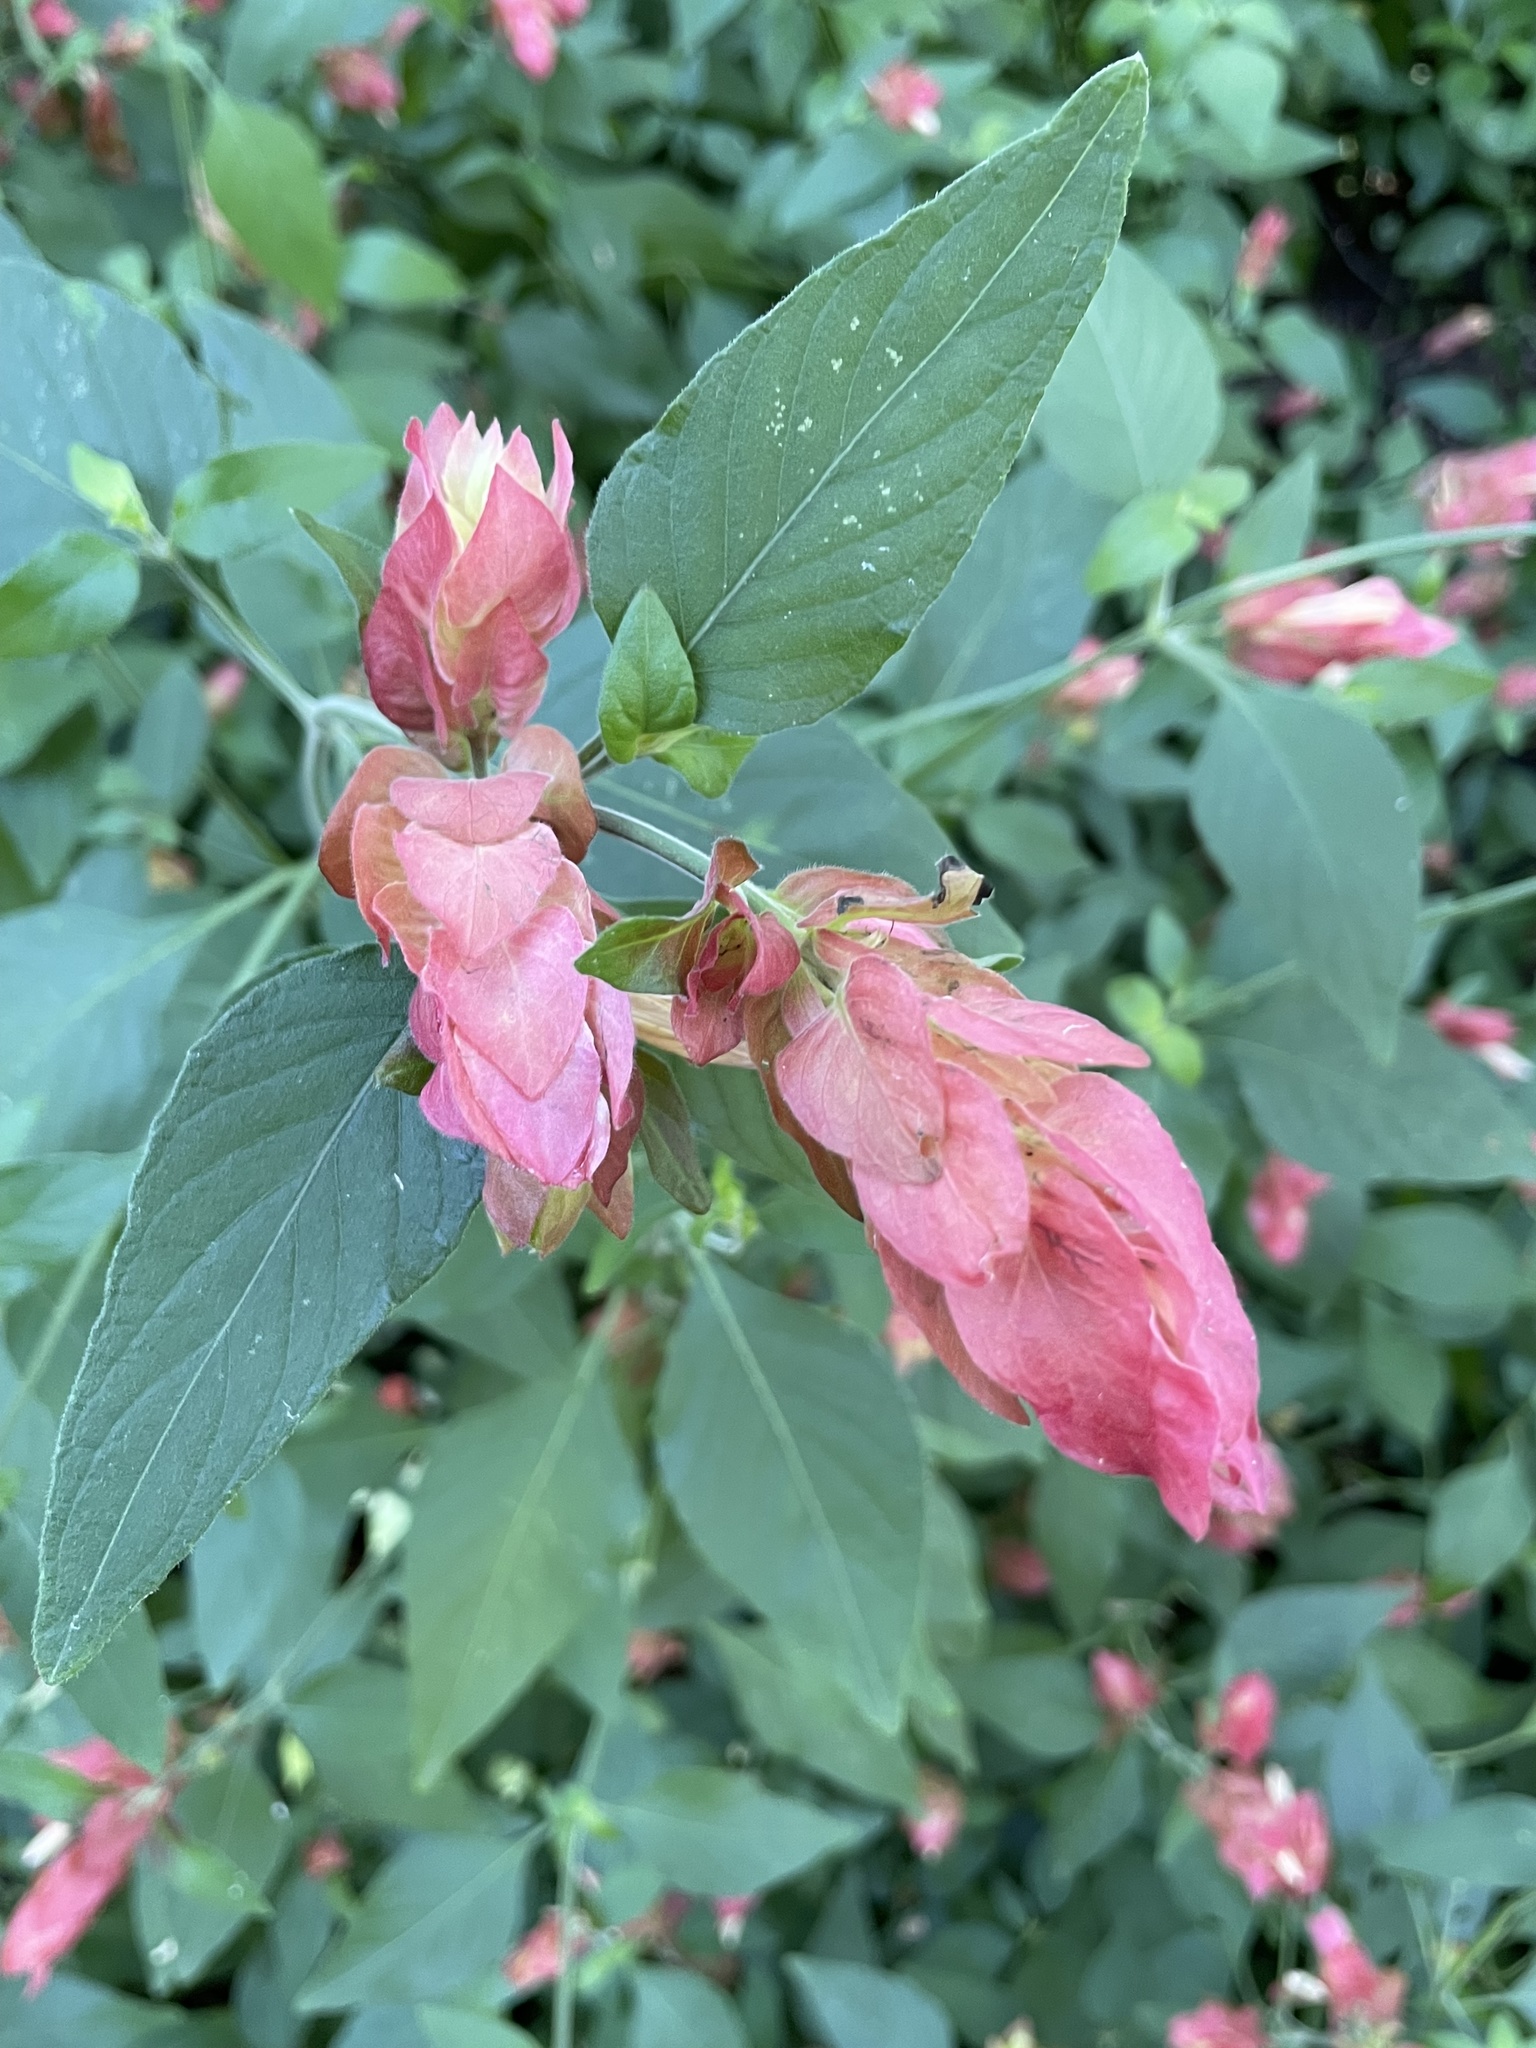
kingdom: Plantae
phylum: Tracheophyta
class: Magnoliopsida
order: Lamiales
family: Acanthaceae
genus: Justicia
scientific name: Justicia brandegeeana
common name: Shrimpplant
